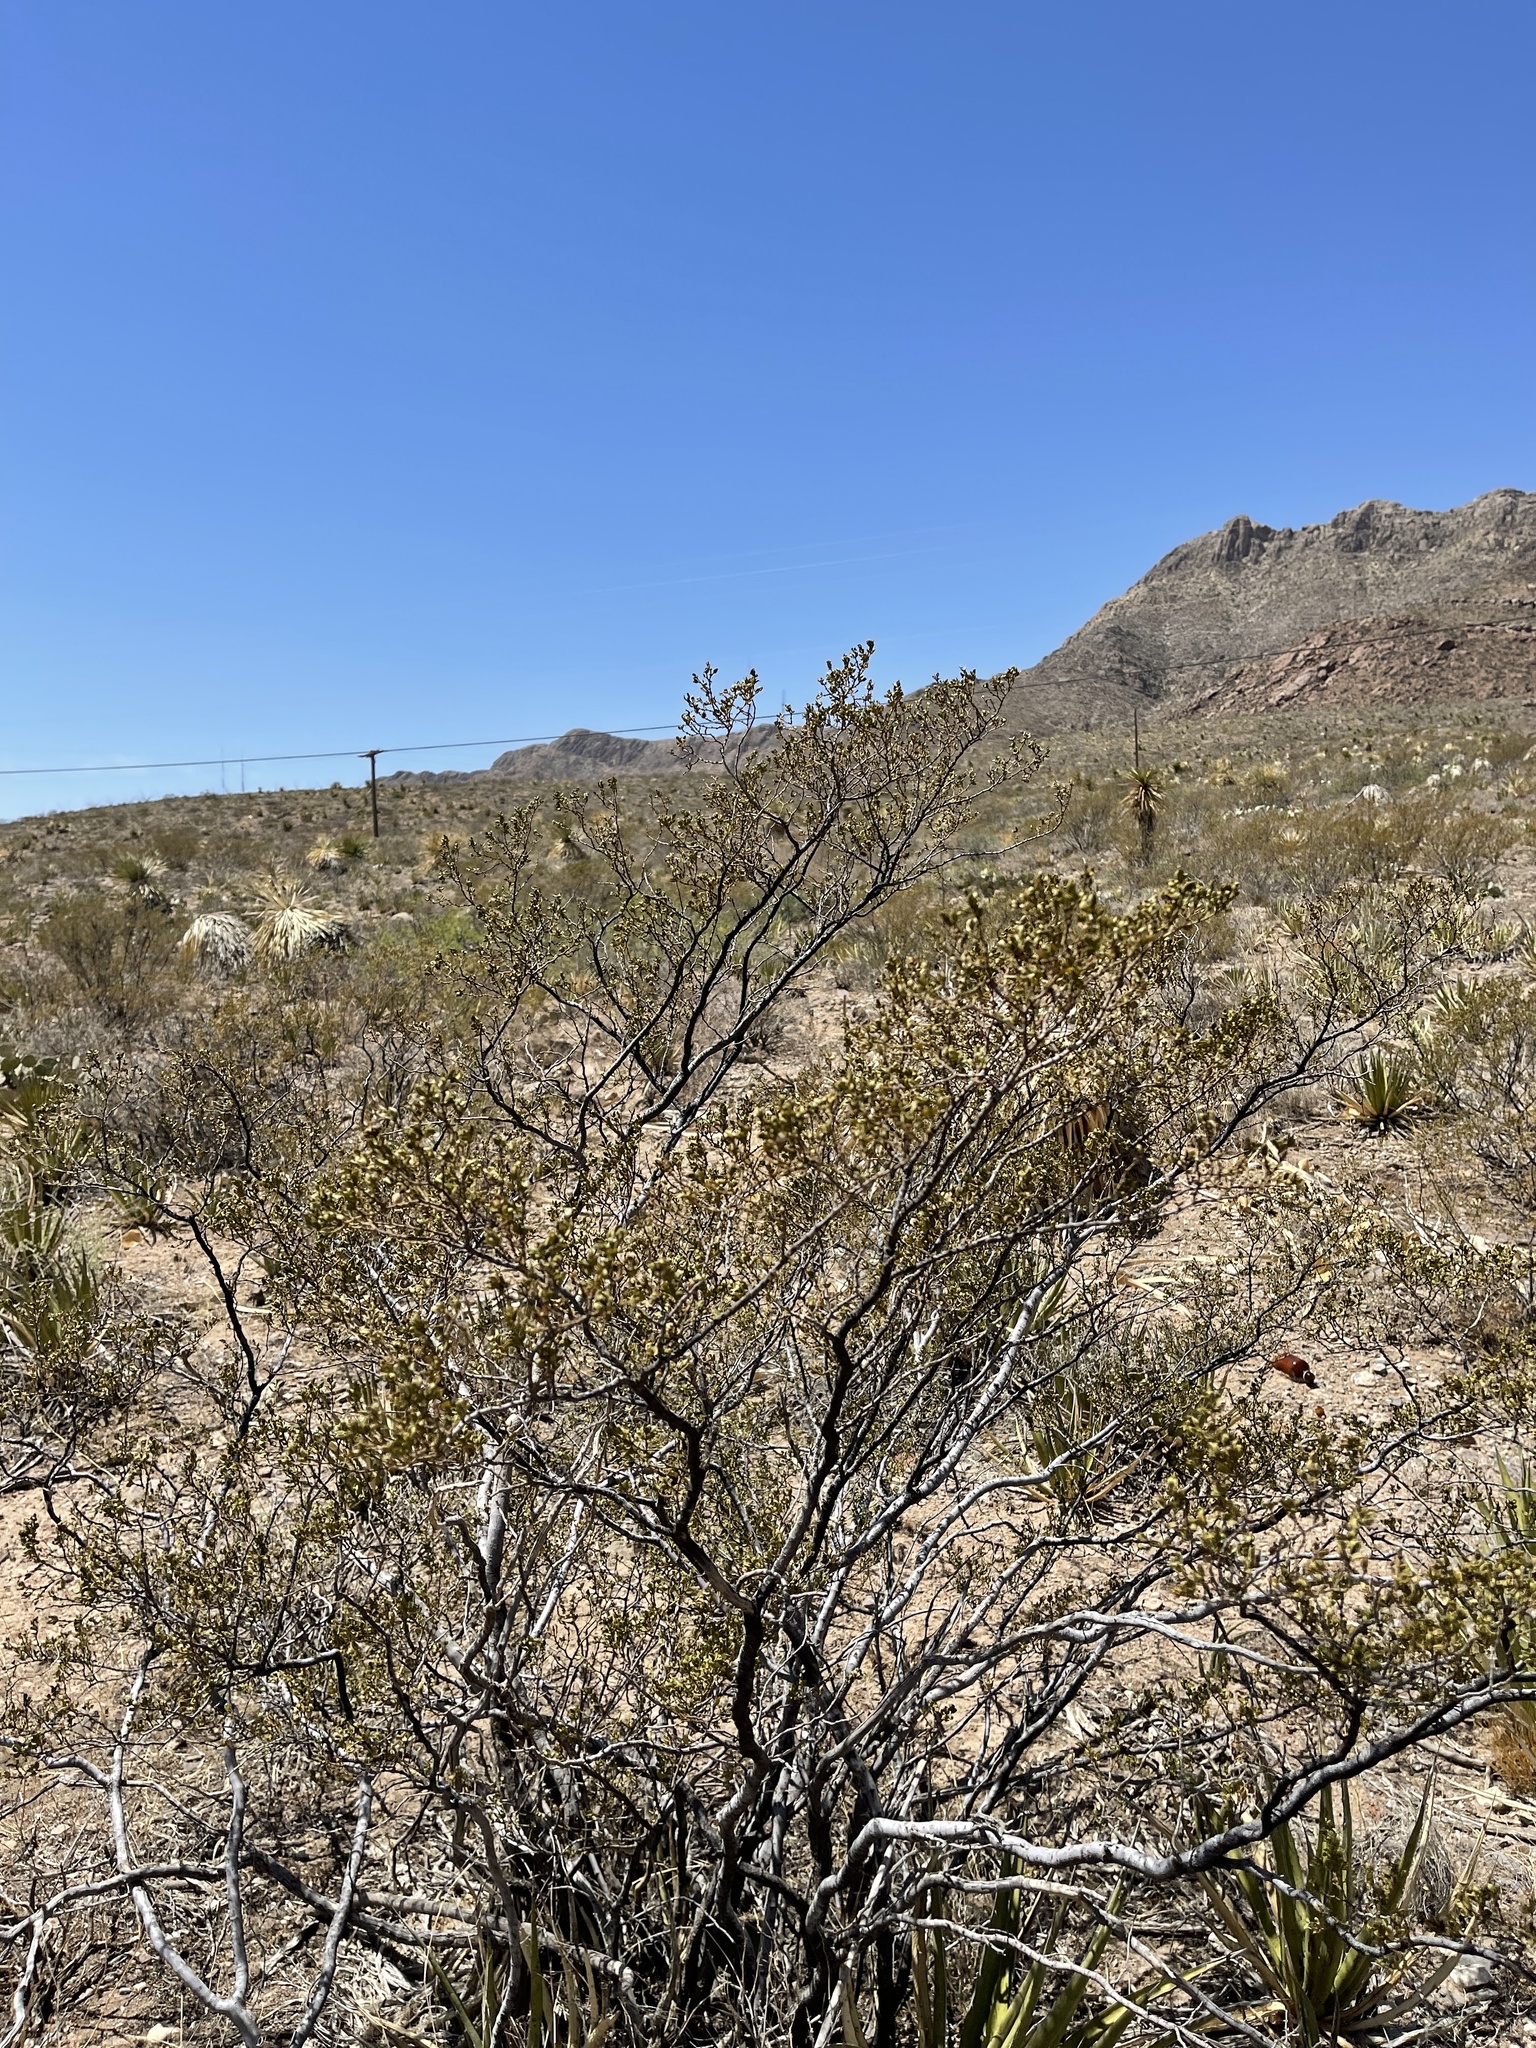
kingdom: Plantae
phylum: Tracheophyta
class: Magnoliopsida
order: Zygophyllales
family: Zygophyllaceae
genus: Larrea
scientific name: Larrea tridentata
